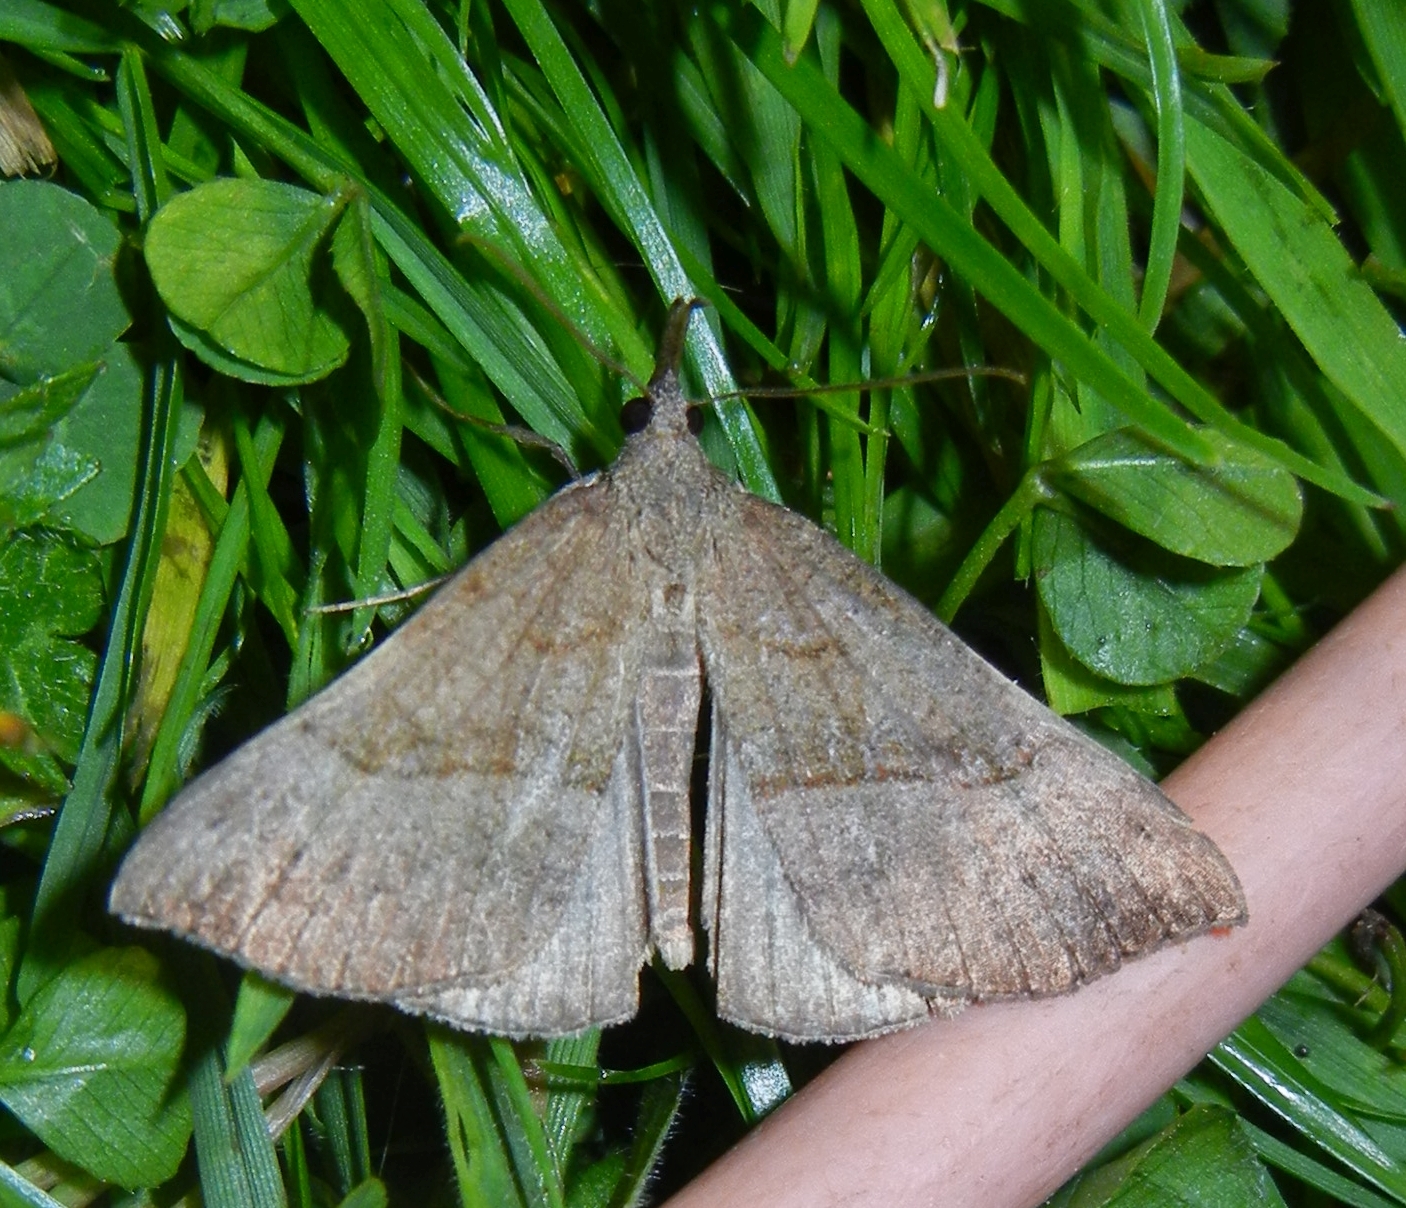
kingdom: Animalia
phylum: Arthropoda
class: Insecta
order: Lepidoptera
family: Erebidae
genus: Hypena
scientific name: Hypena proboscidalis
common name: Snout
